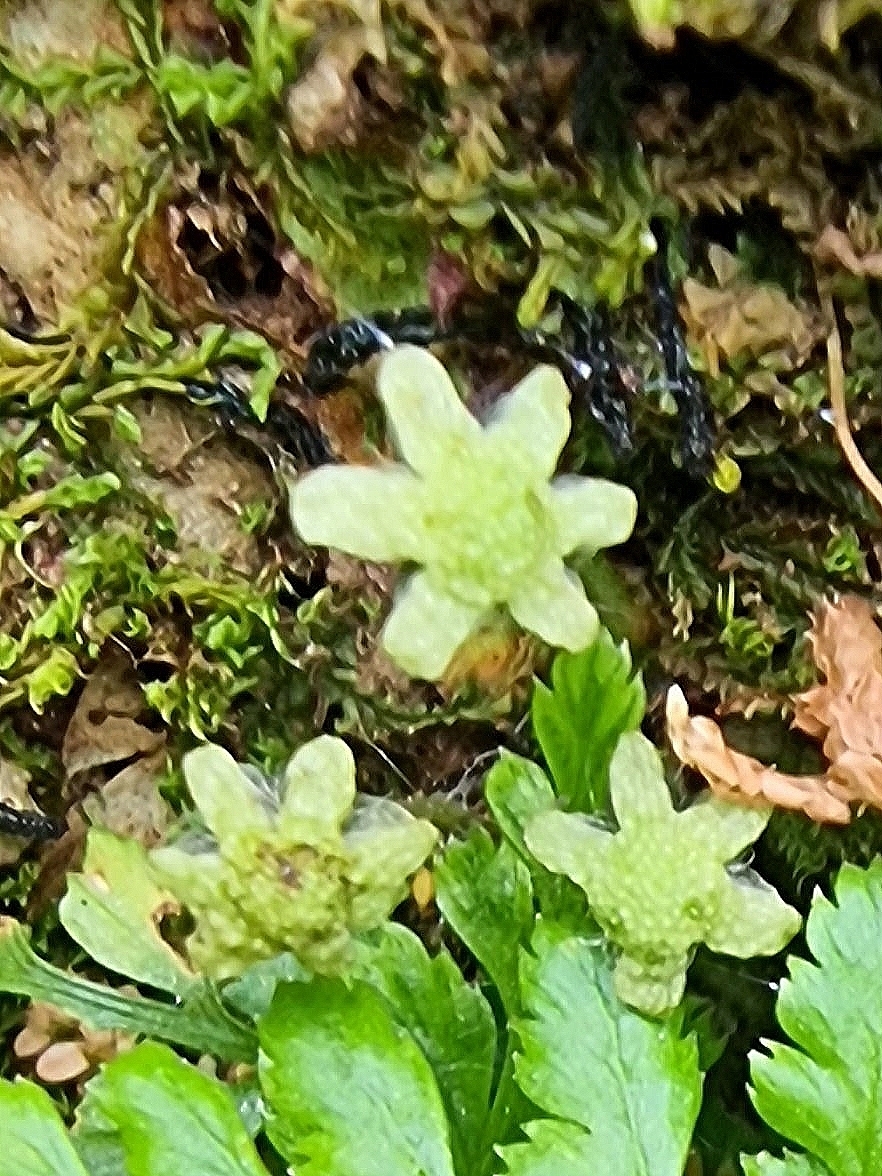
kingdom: Plantae
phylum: Marchantiophyta
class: Marchantiopsida
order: Marchantiales
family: Aytoniaceae
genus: Reboulia
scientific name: Reboulia hemisphaerica
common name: Purple-margined liverwort
